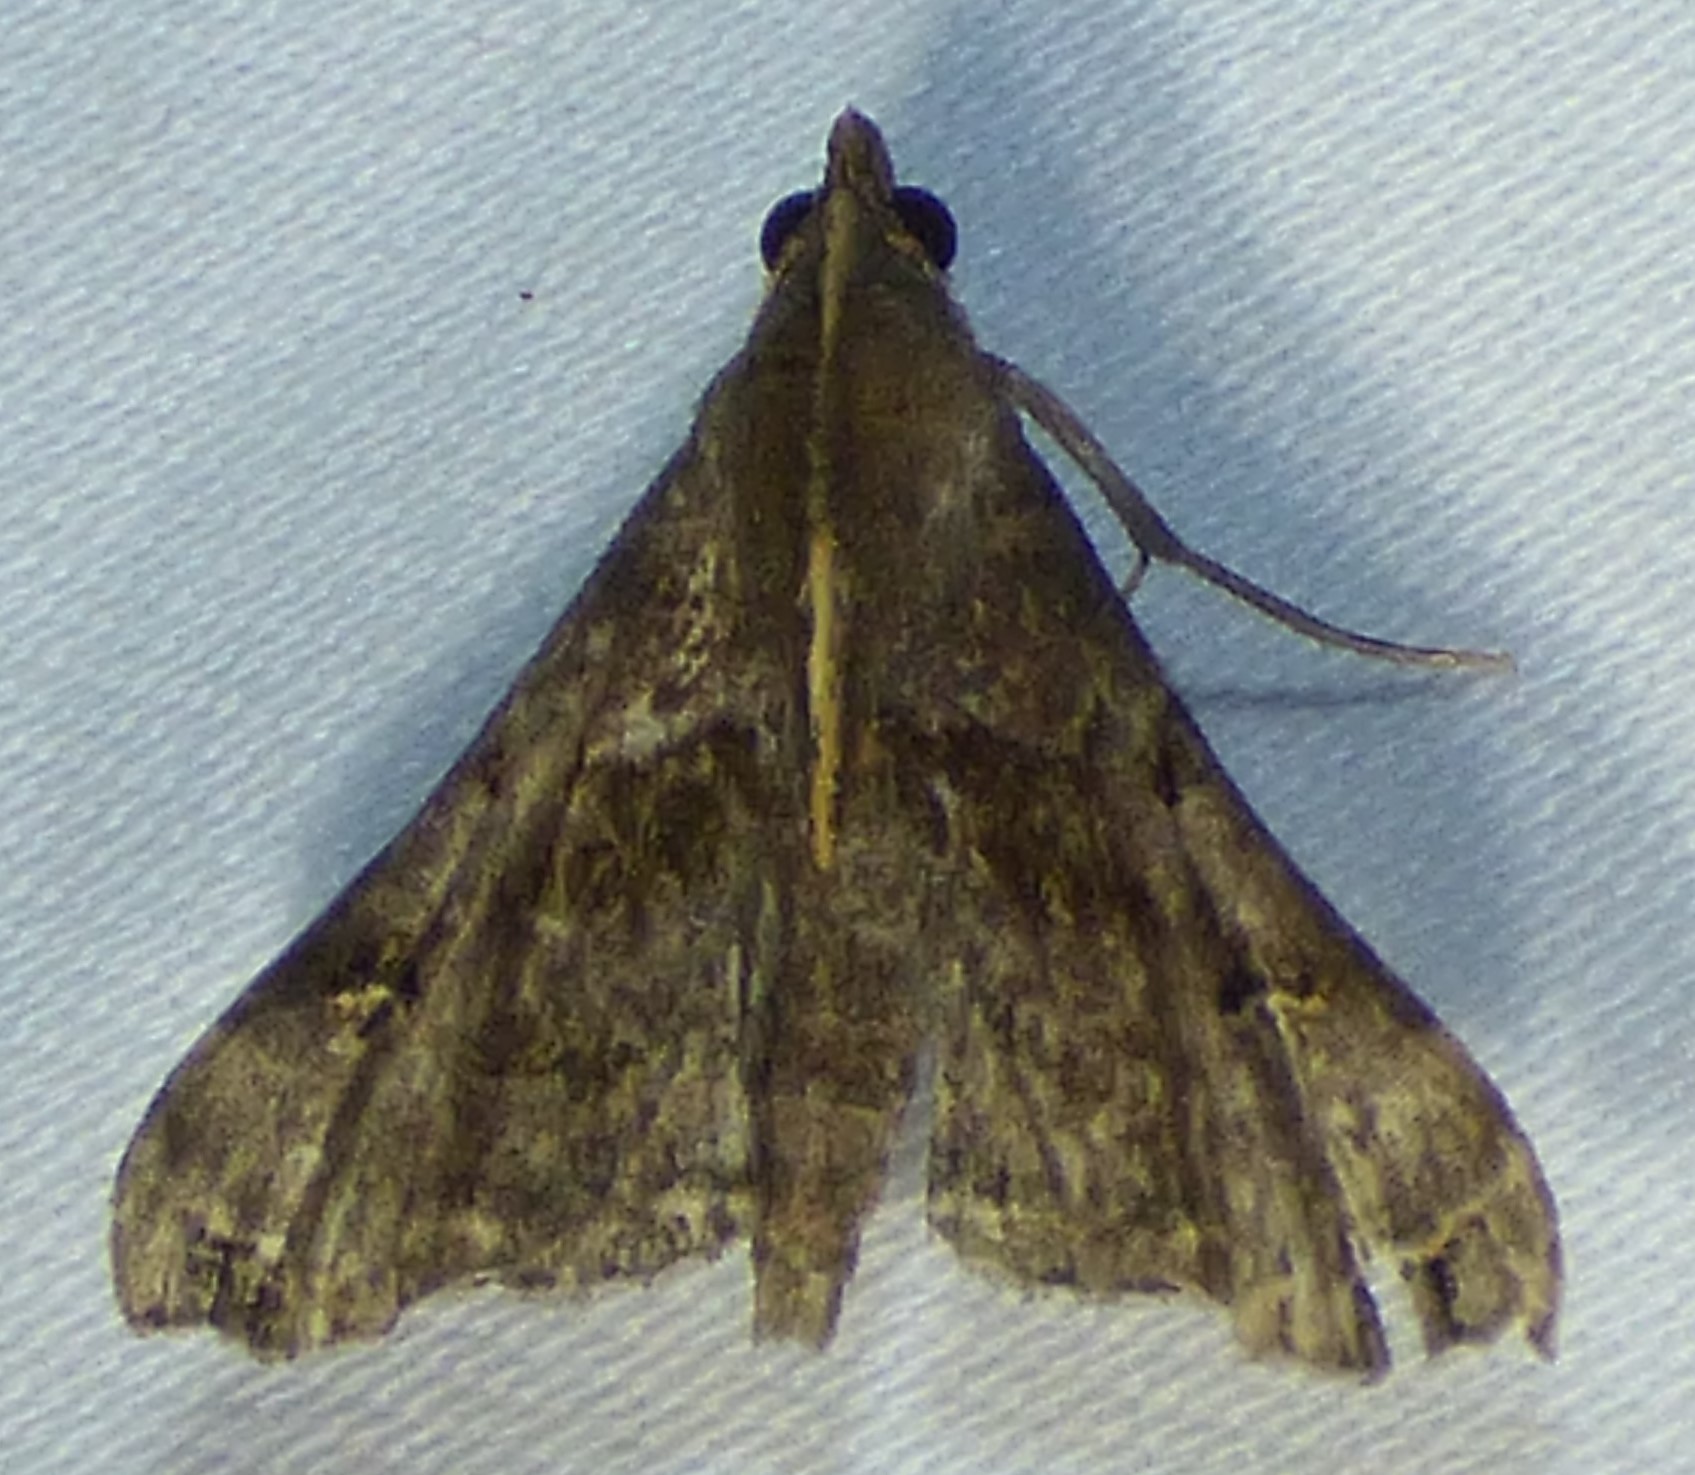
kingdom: Animalia
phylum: Arthropoda
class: Insecta
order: Lepidoptera
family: Erebidae
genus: Palthis
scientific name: Palthis asopialis
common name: Faint-spotted palthis moth
